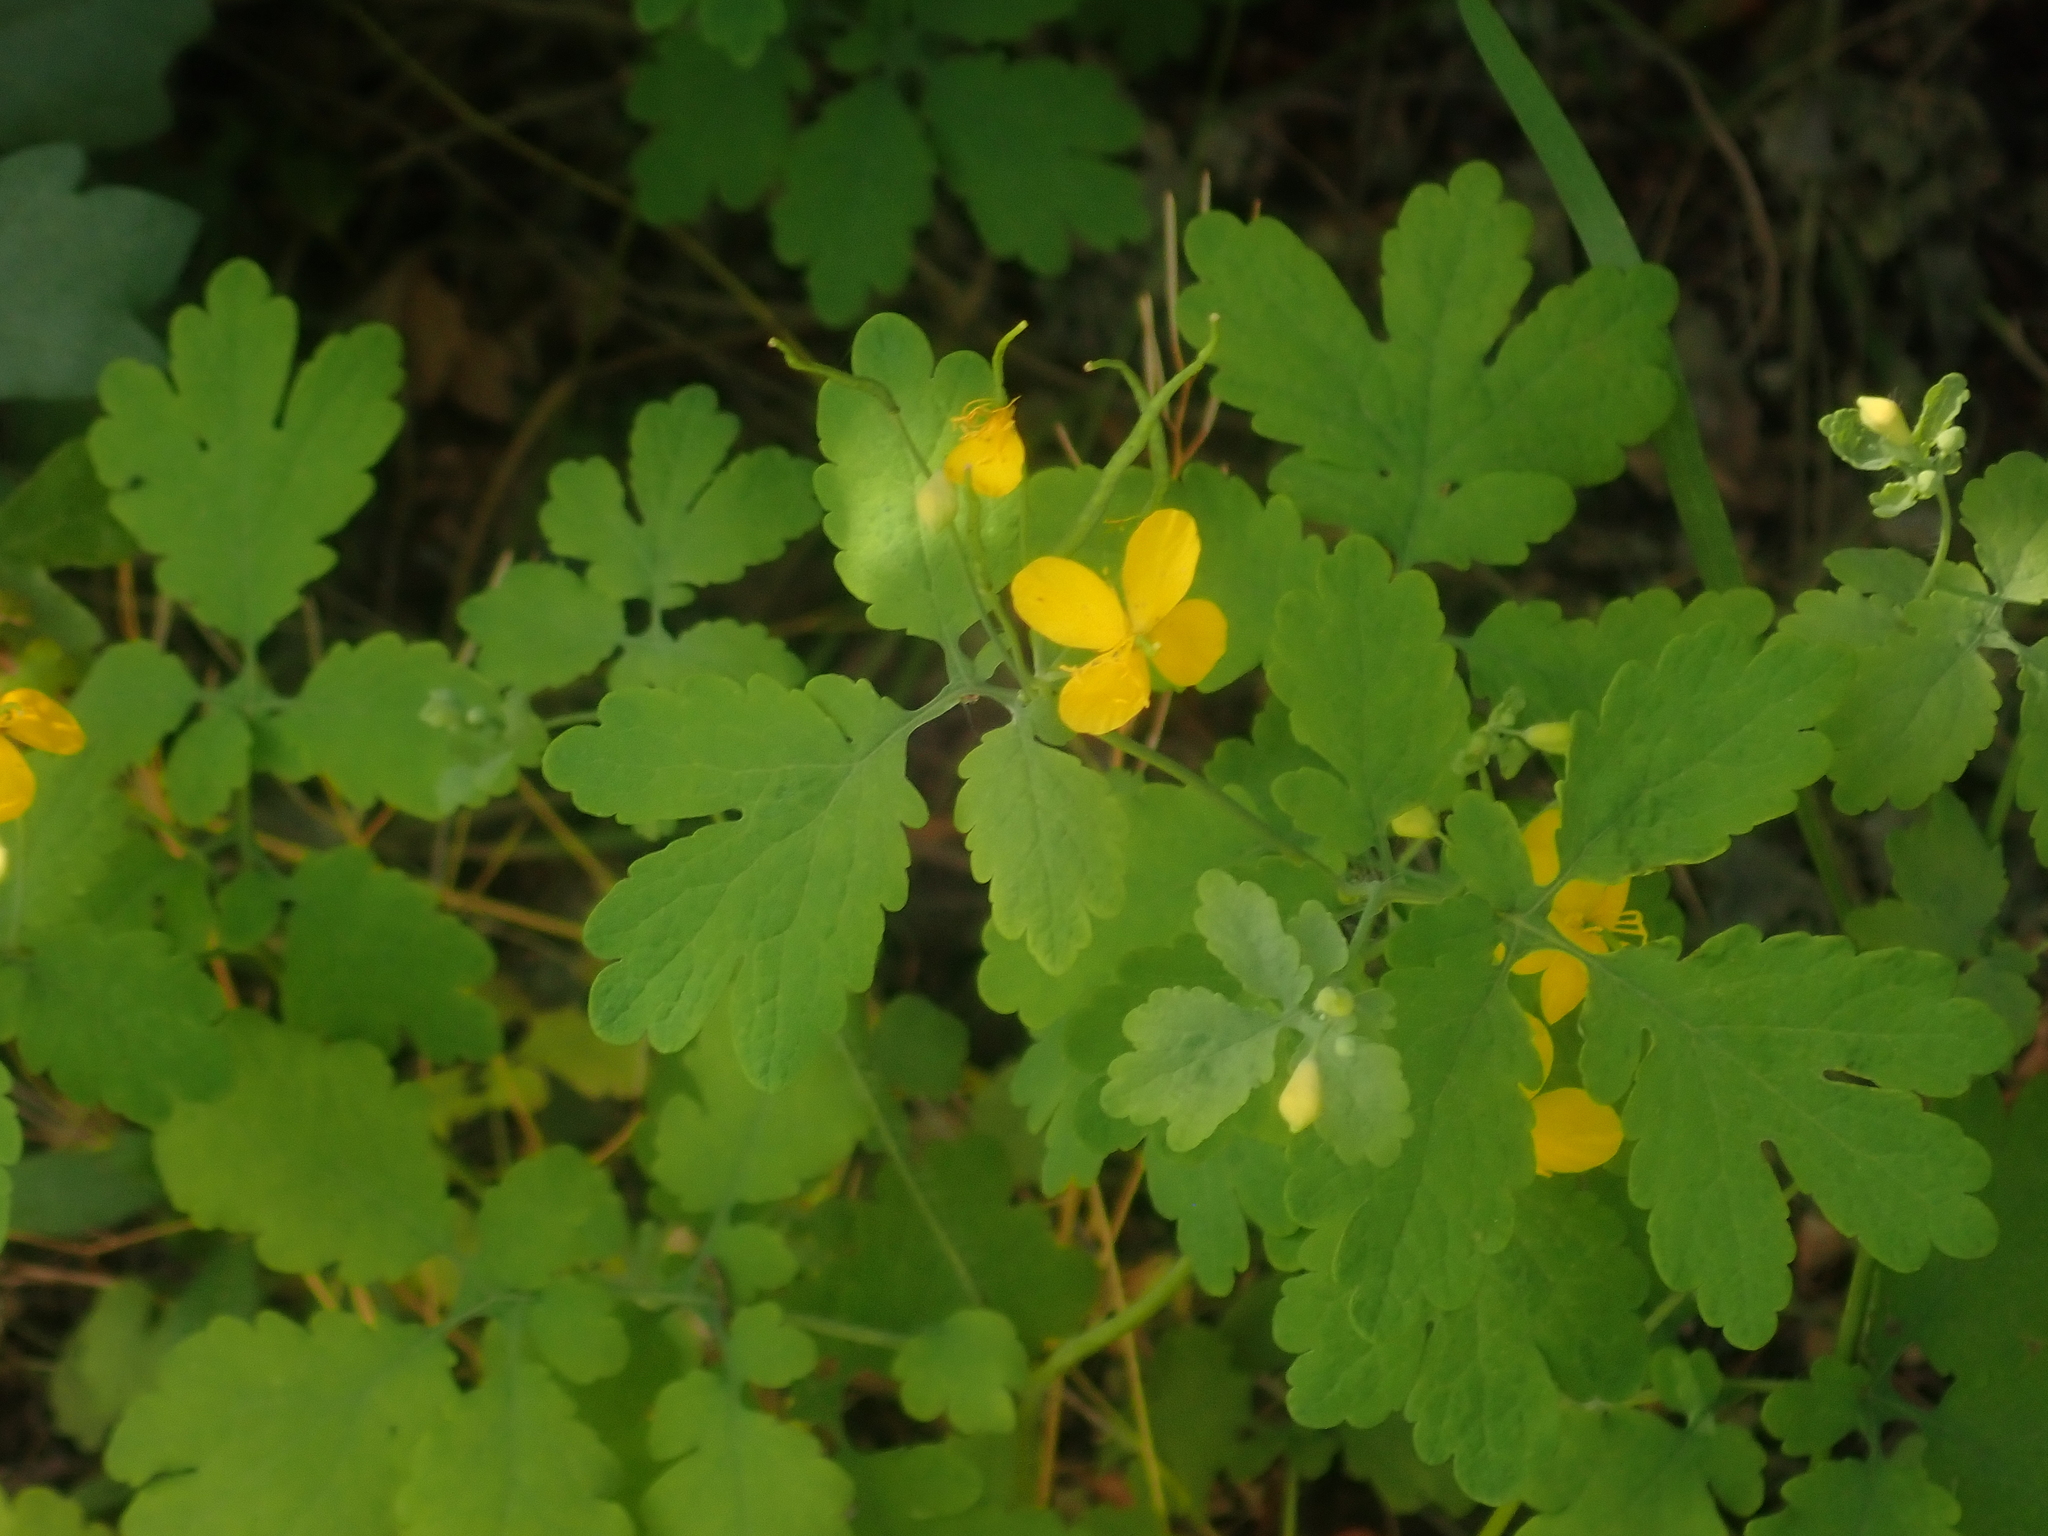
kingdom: Plantae
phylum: Tracheophyta
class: Magnoliopsida
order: Ranunculales
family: Papaveraceae
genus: Chelidonium
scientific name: Chelidonium majus
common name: Greater celandine
